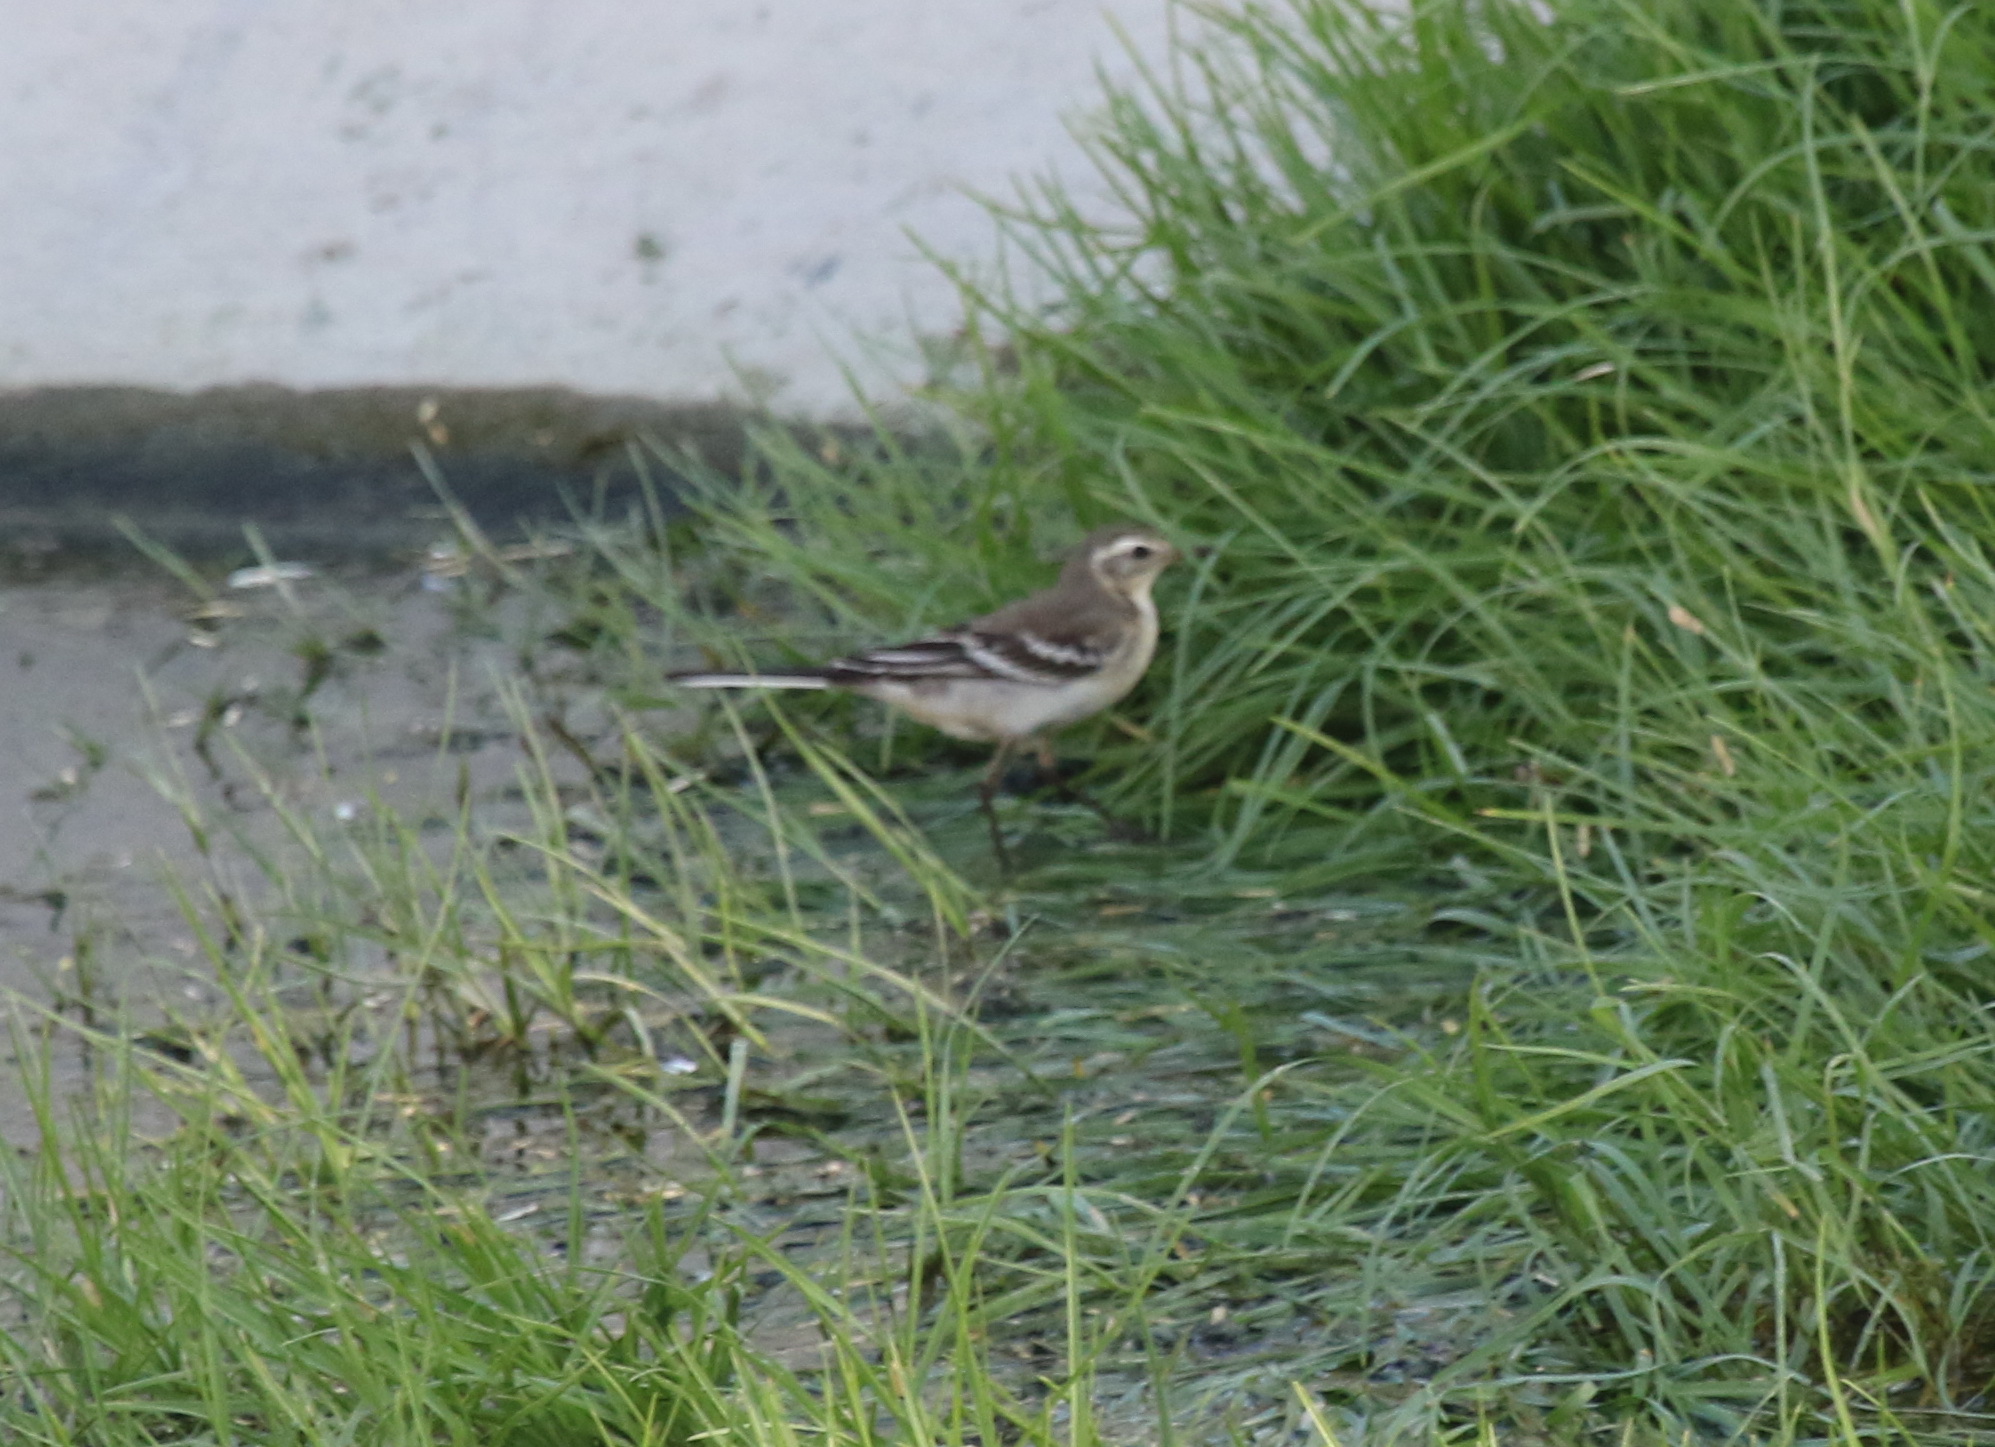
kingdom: Animalia
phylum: Chordata
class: Aves
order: Passeriformes
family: Motacillidae
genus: Motacilla
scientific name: Motacilla citreola
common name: Citrine wagtail
